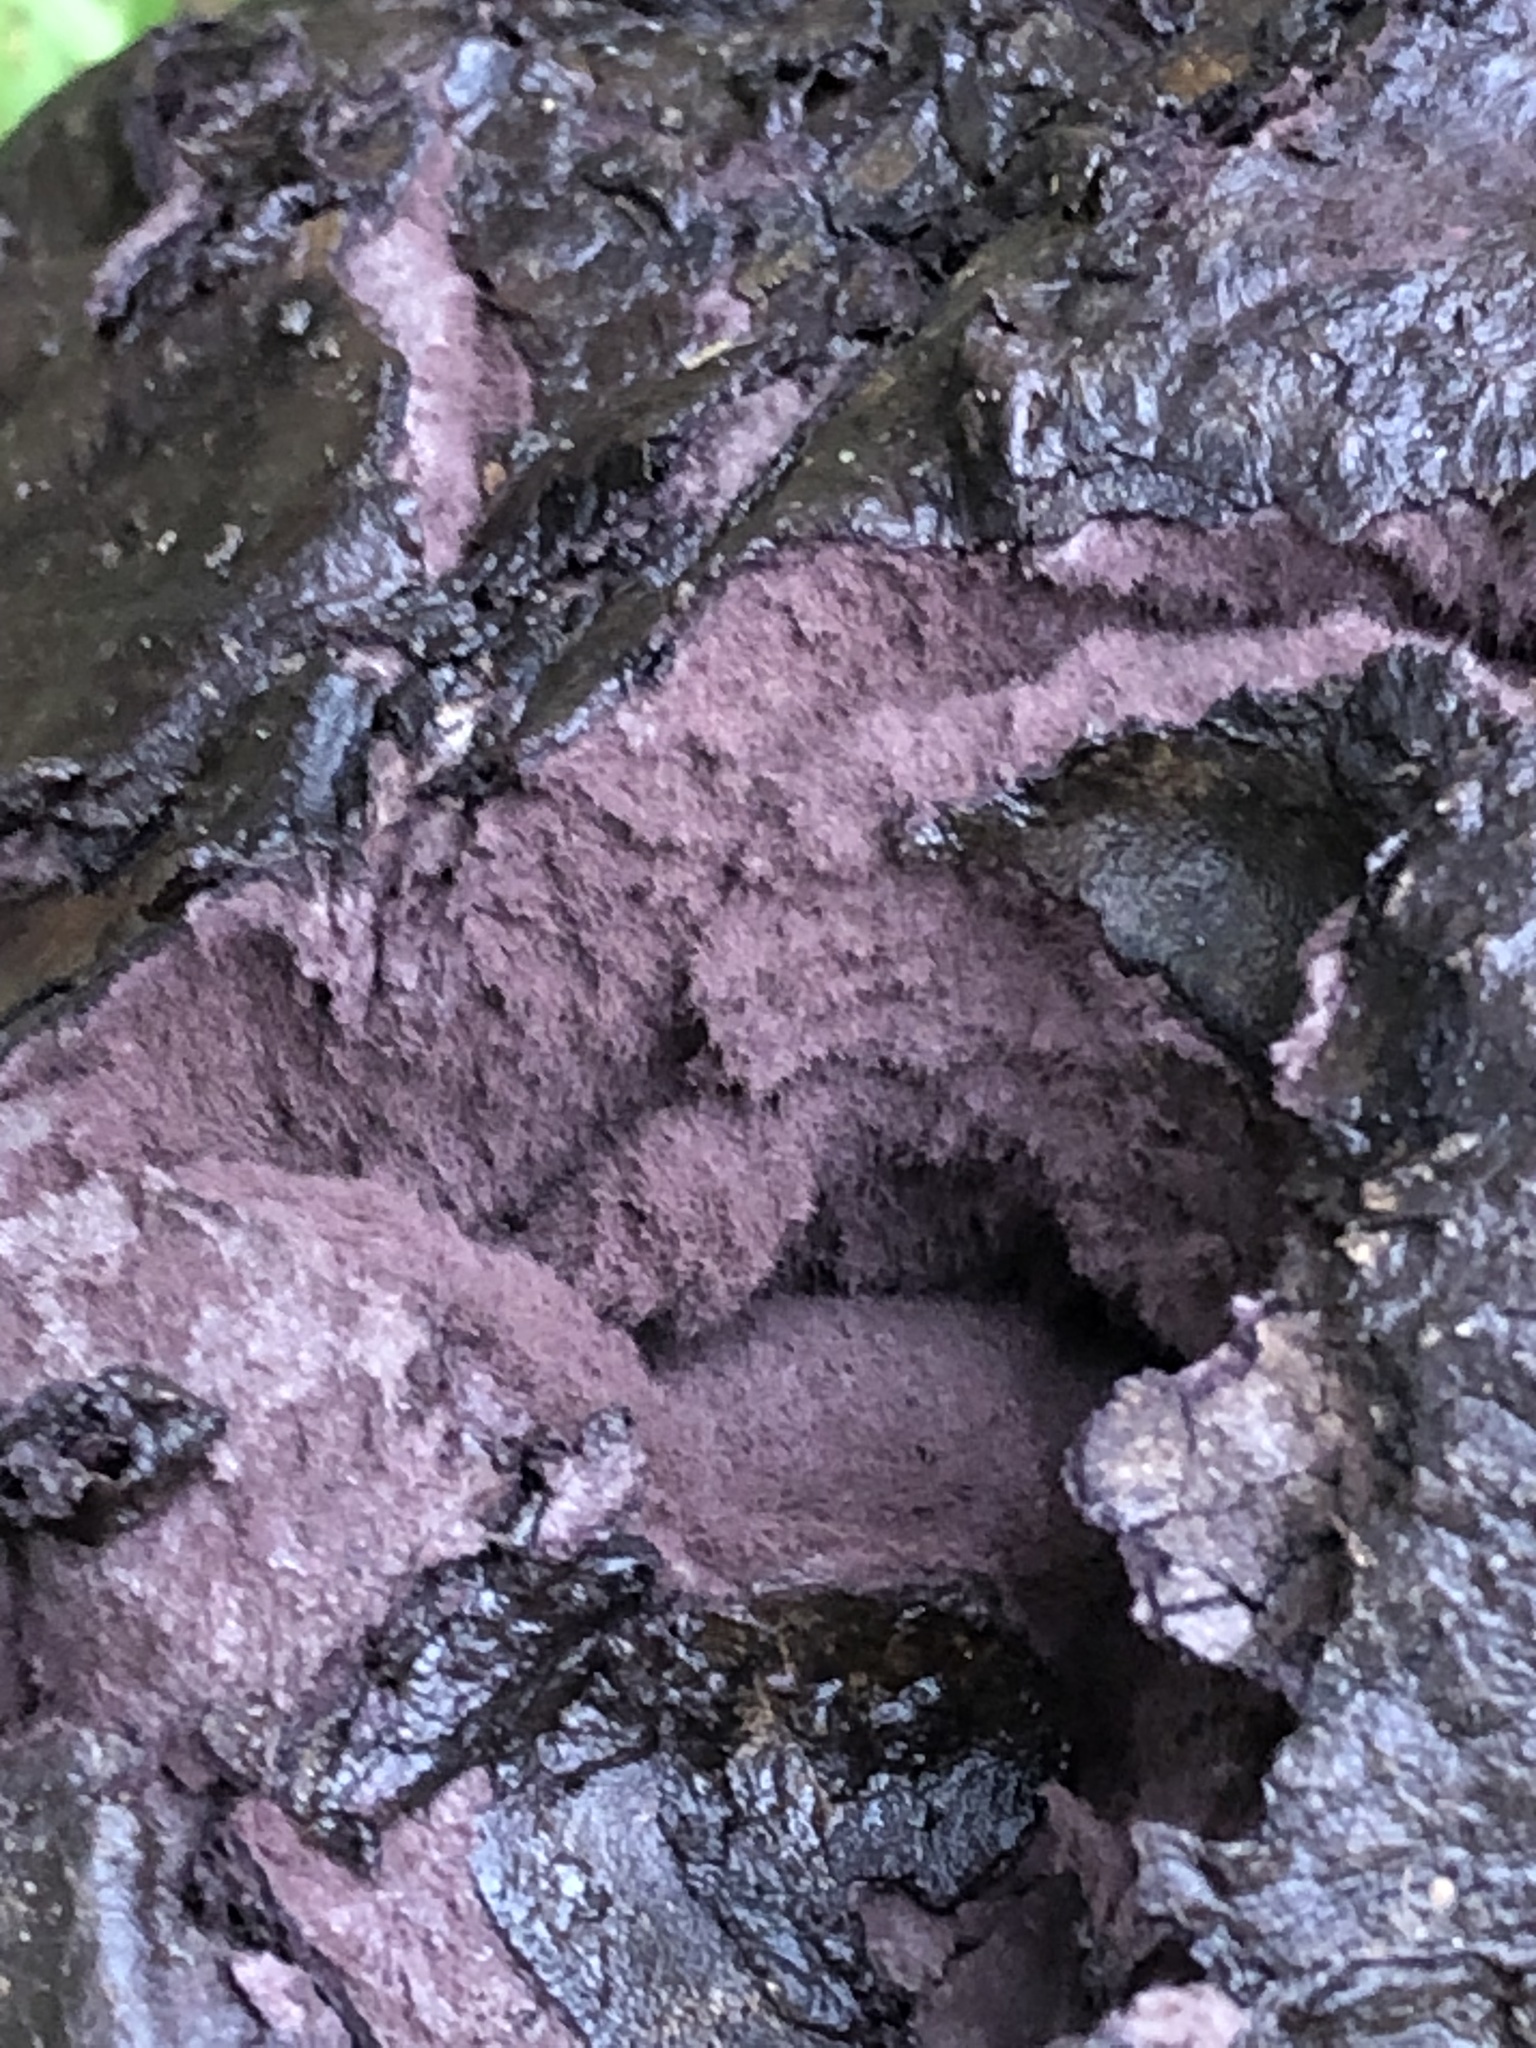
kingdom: Fungi
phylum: Basidiomycota
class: Agaricomycetes
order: Agaricales
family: Lycoperdaceae
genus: Calvatia
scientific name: Calvatia cyathiformis
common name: Purple-spored puffball
